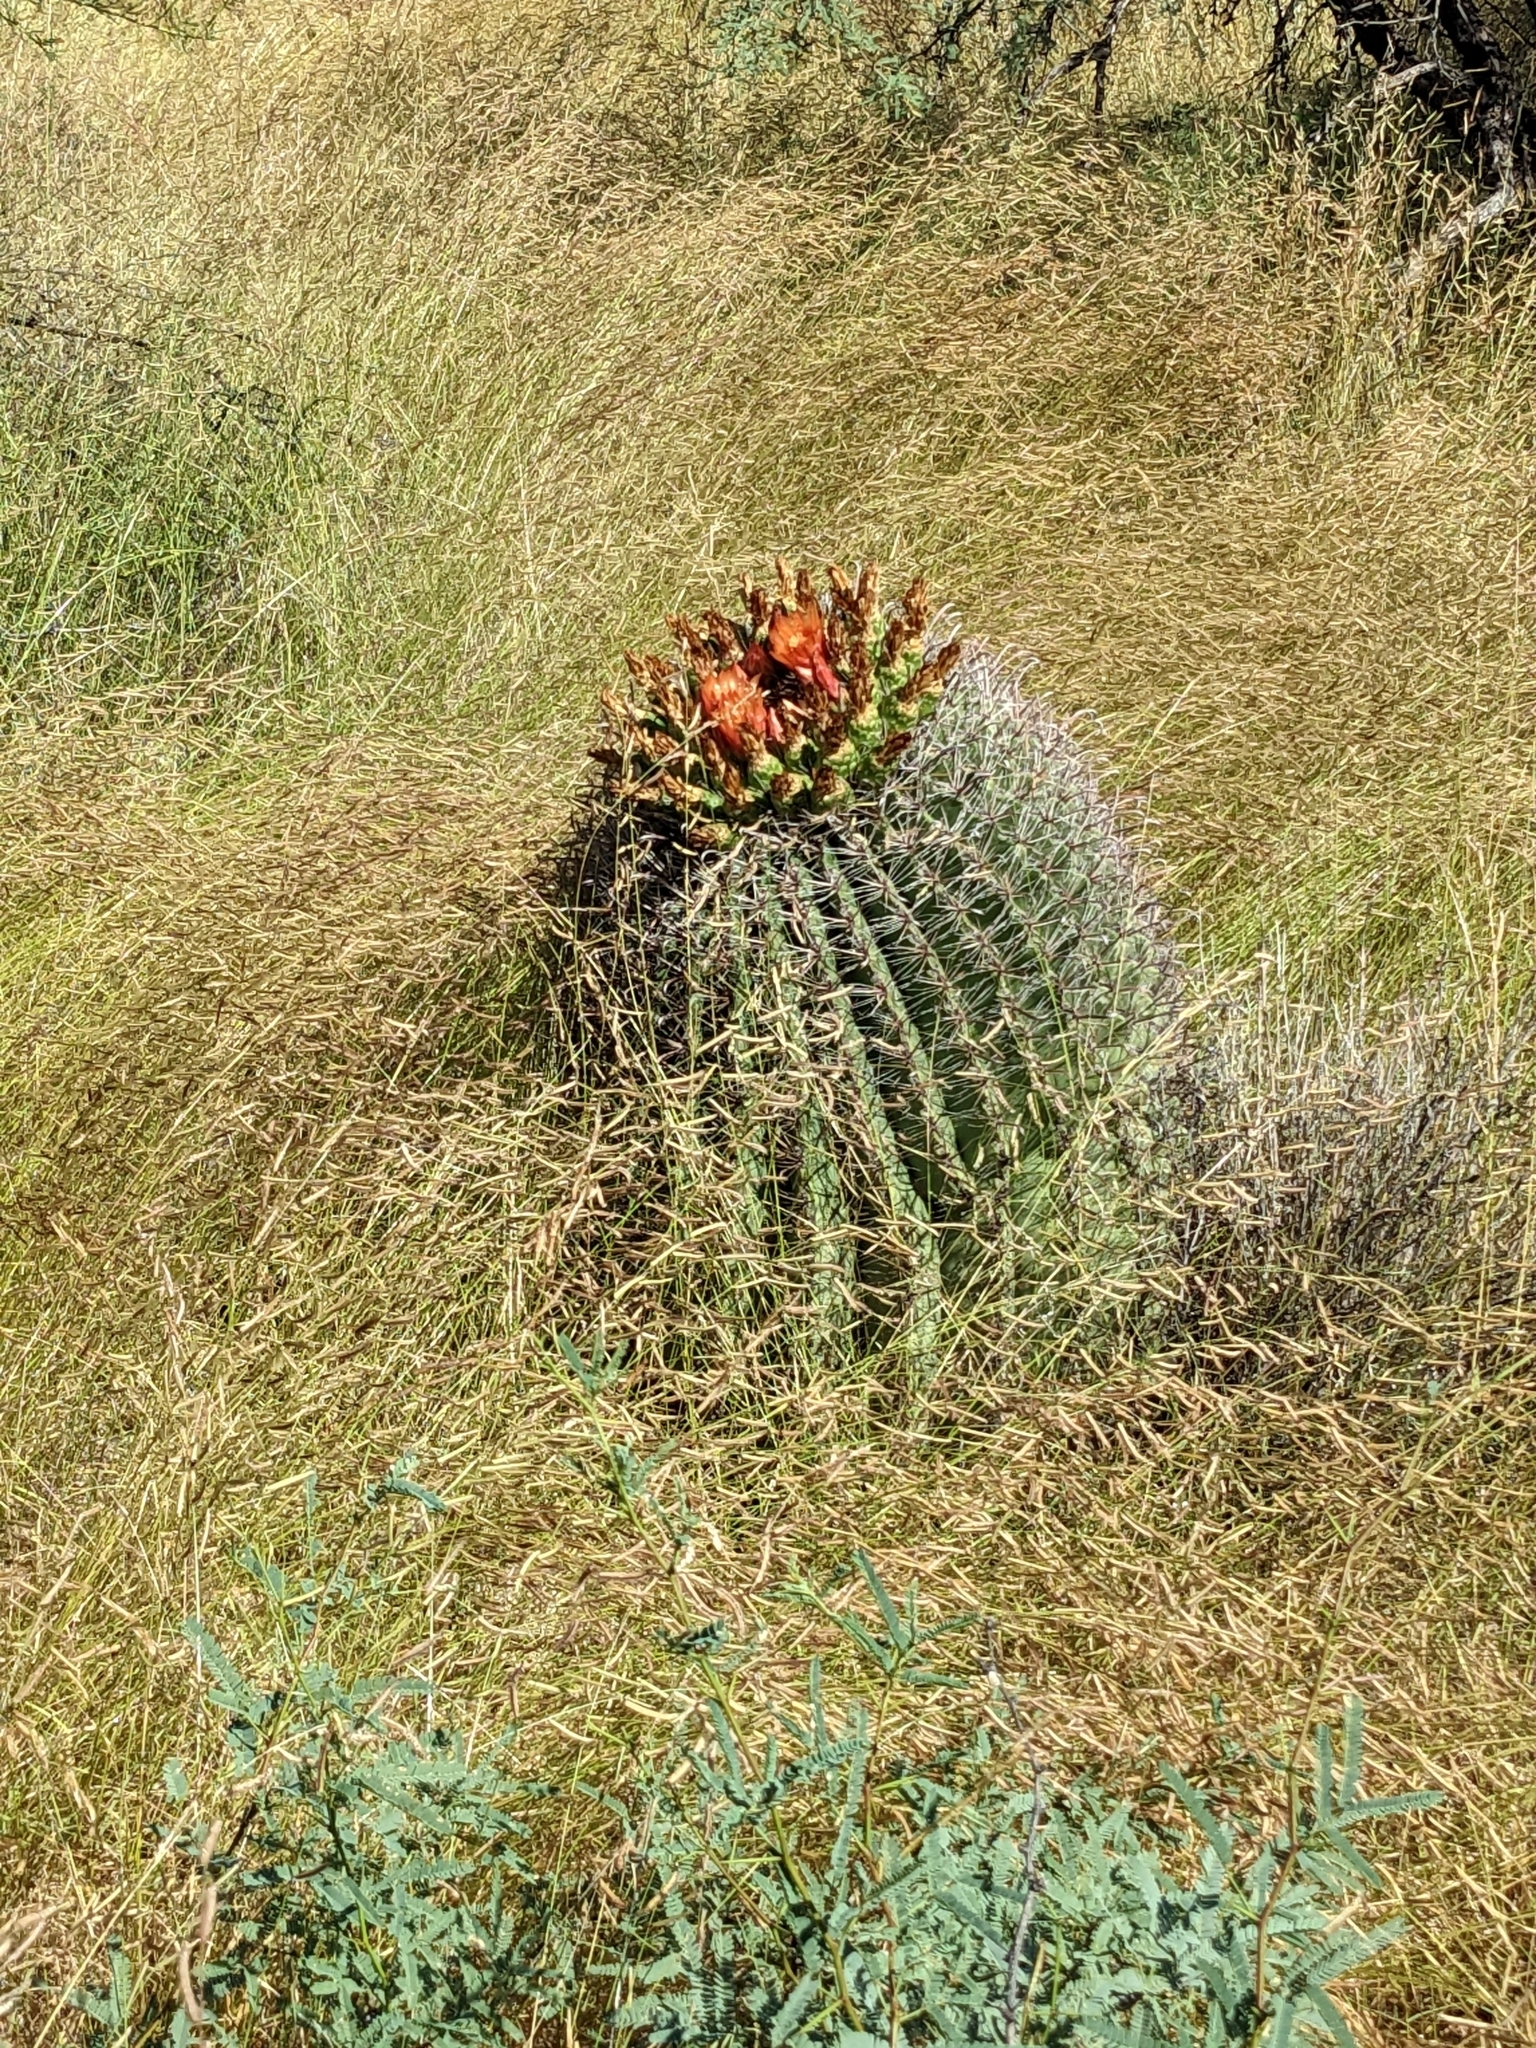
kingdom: Plantae
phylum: Tracheophyta
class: Magnoliopsida
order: Caryophyllales
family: Cactaceae
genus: Ferocactus
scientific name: Ferocactus wislizeni
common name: Candy barrel cactus
